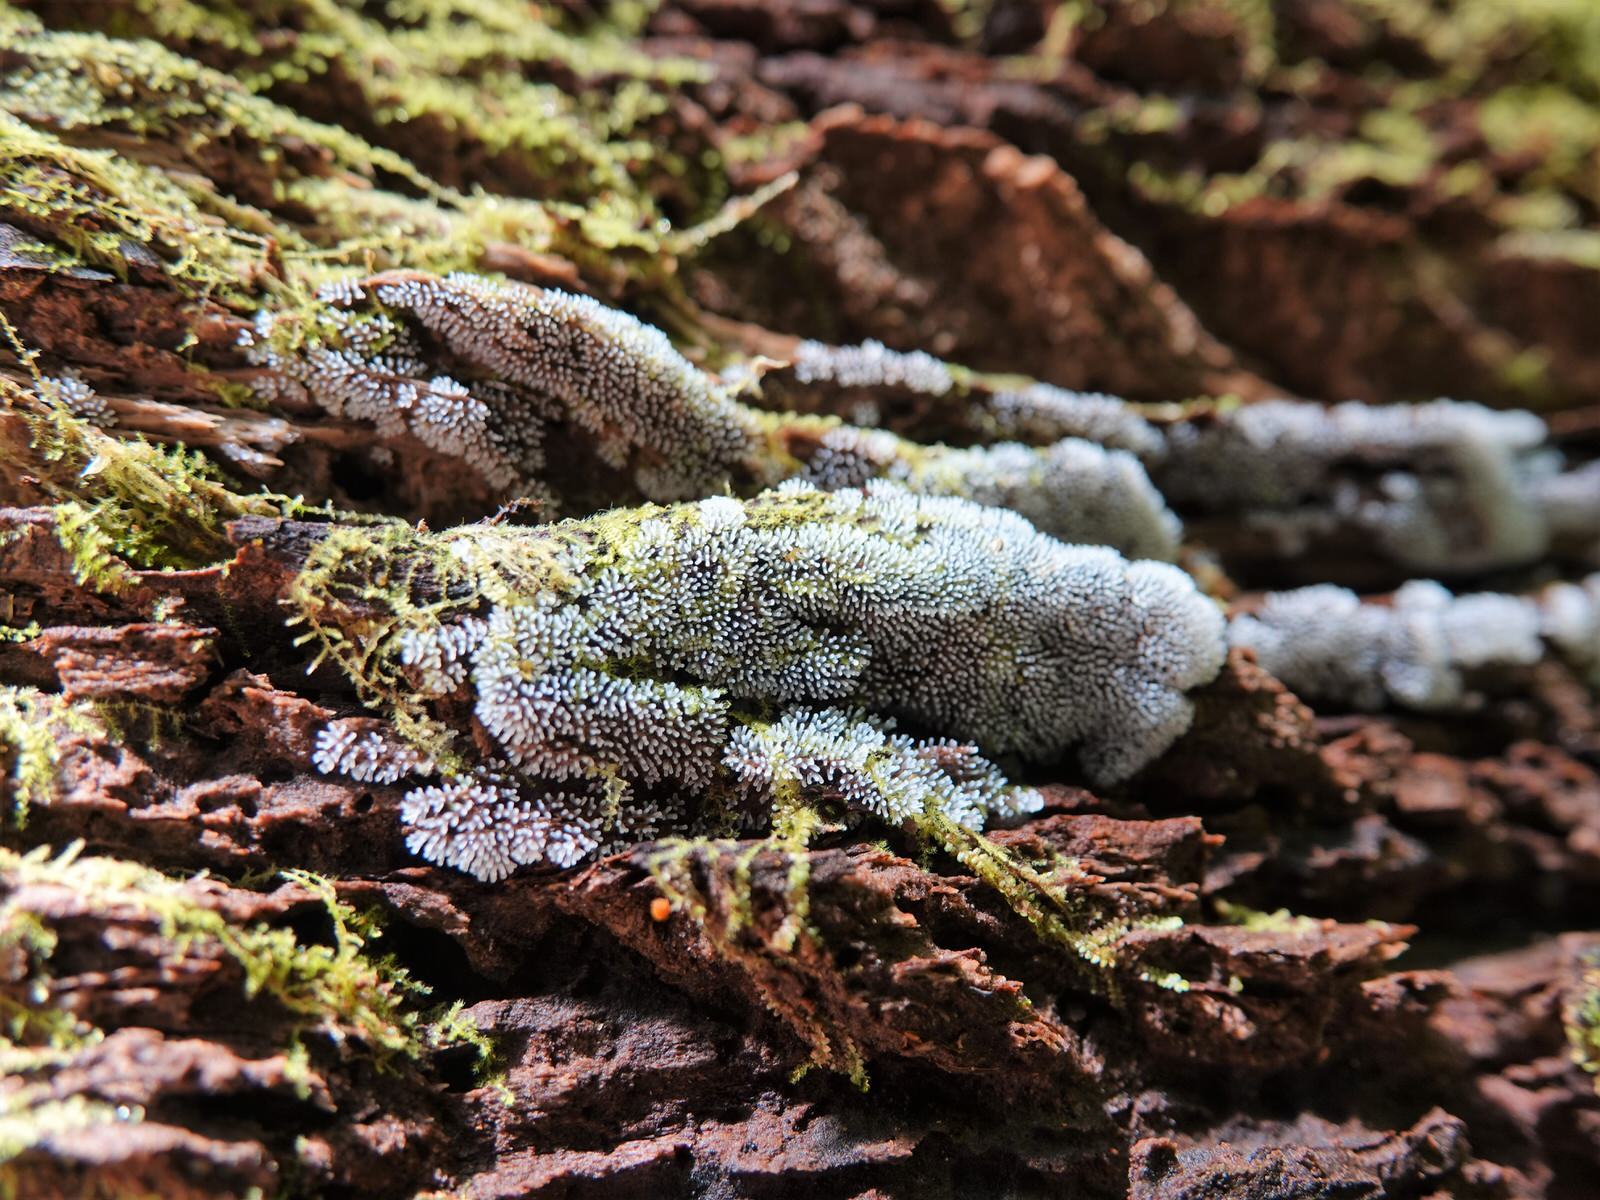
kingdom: Protozoa
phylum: Mycetozoa
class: Protosteliomycetes
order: Ceratiomyxales
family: Ceratiomyxaceae
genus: Ceratiomyxa
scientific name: Ceratiomyxa fruticulosa
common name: Honeycomb coral slime mold
